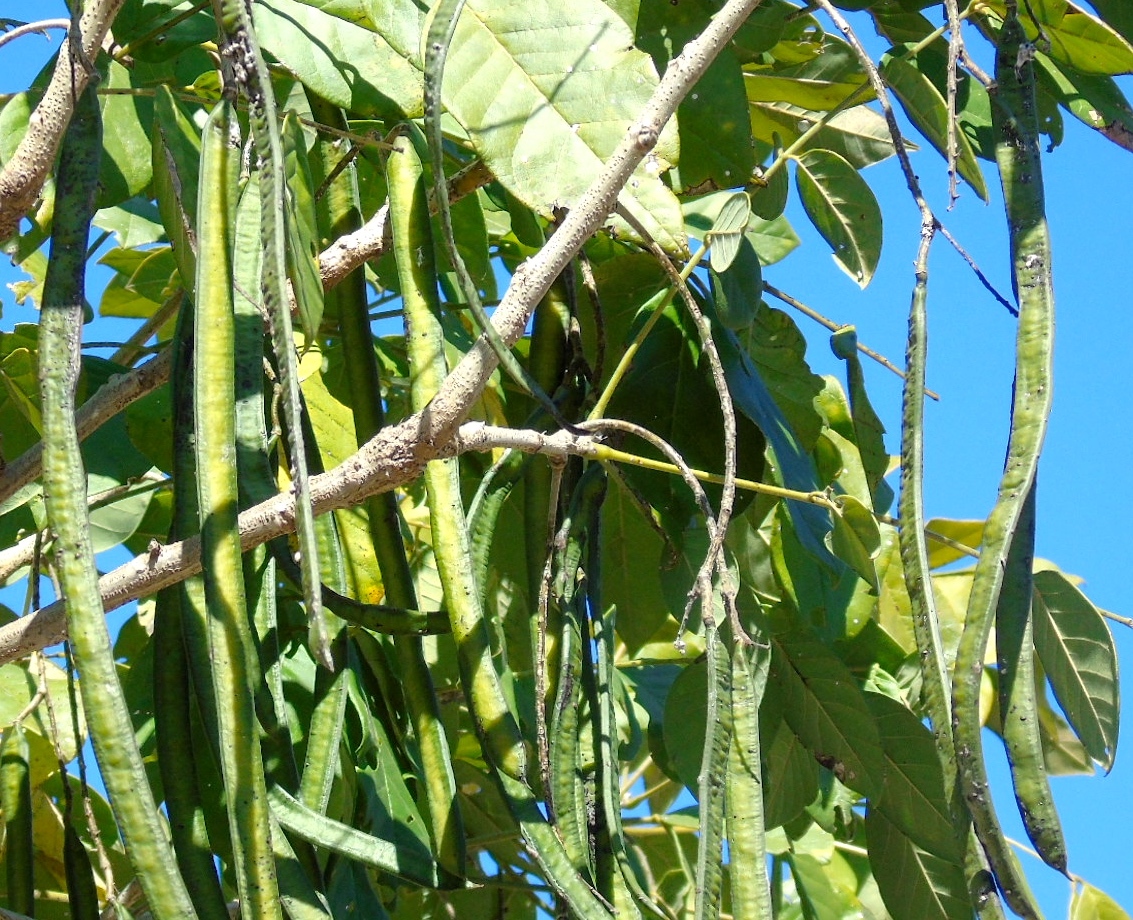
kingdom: Plantae
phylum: Tracheophyta
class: Magnoliopsida
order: Fabales
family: Fabaceae
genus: Senna
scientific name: Senna atomaria
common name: Flor de san jose
